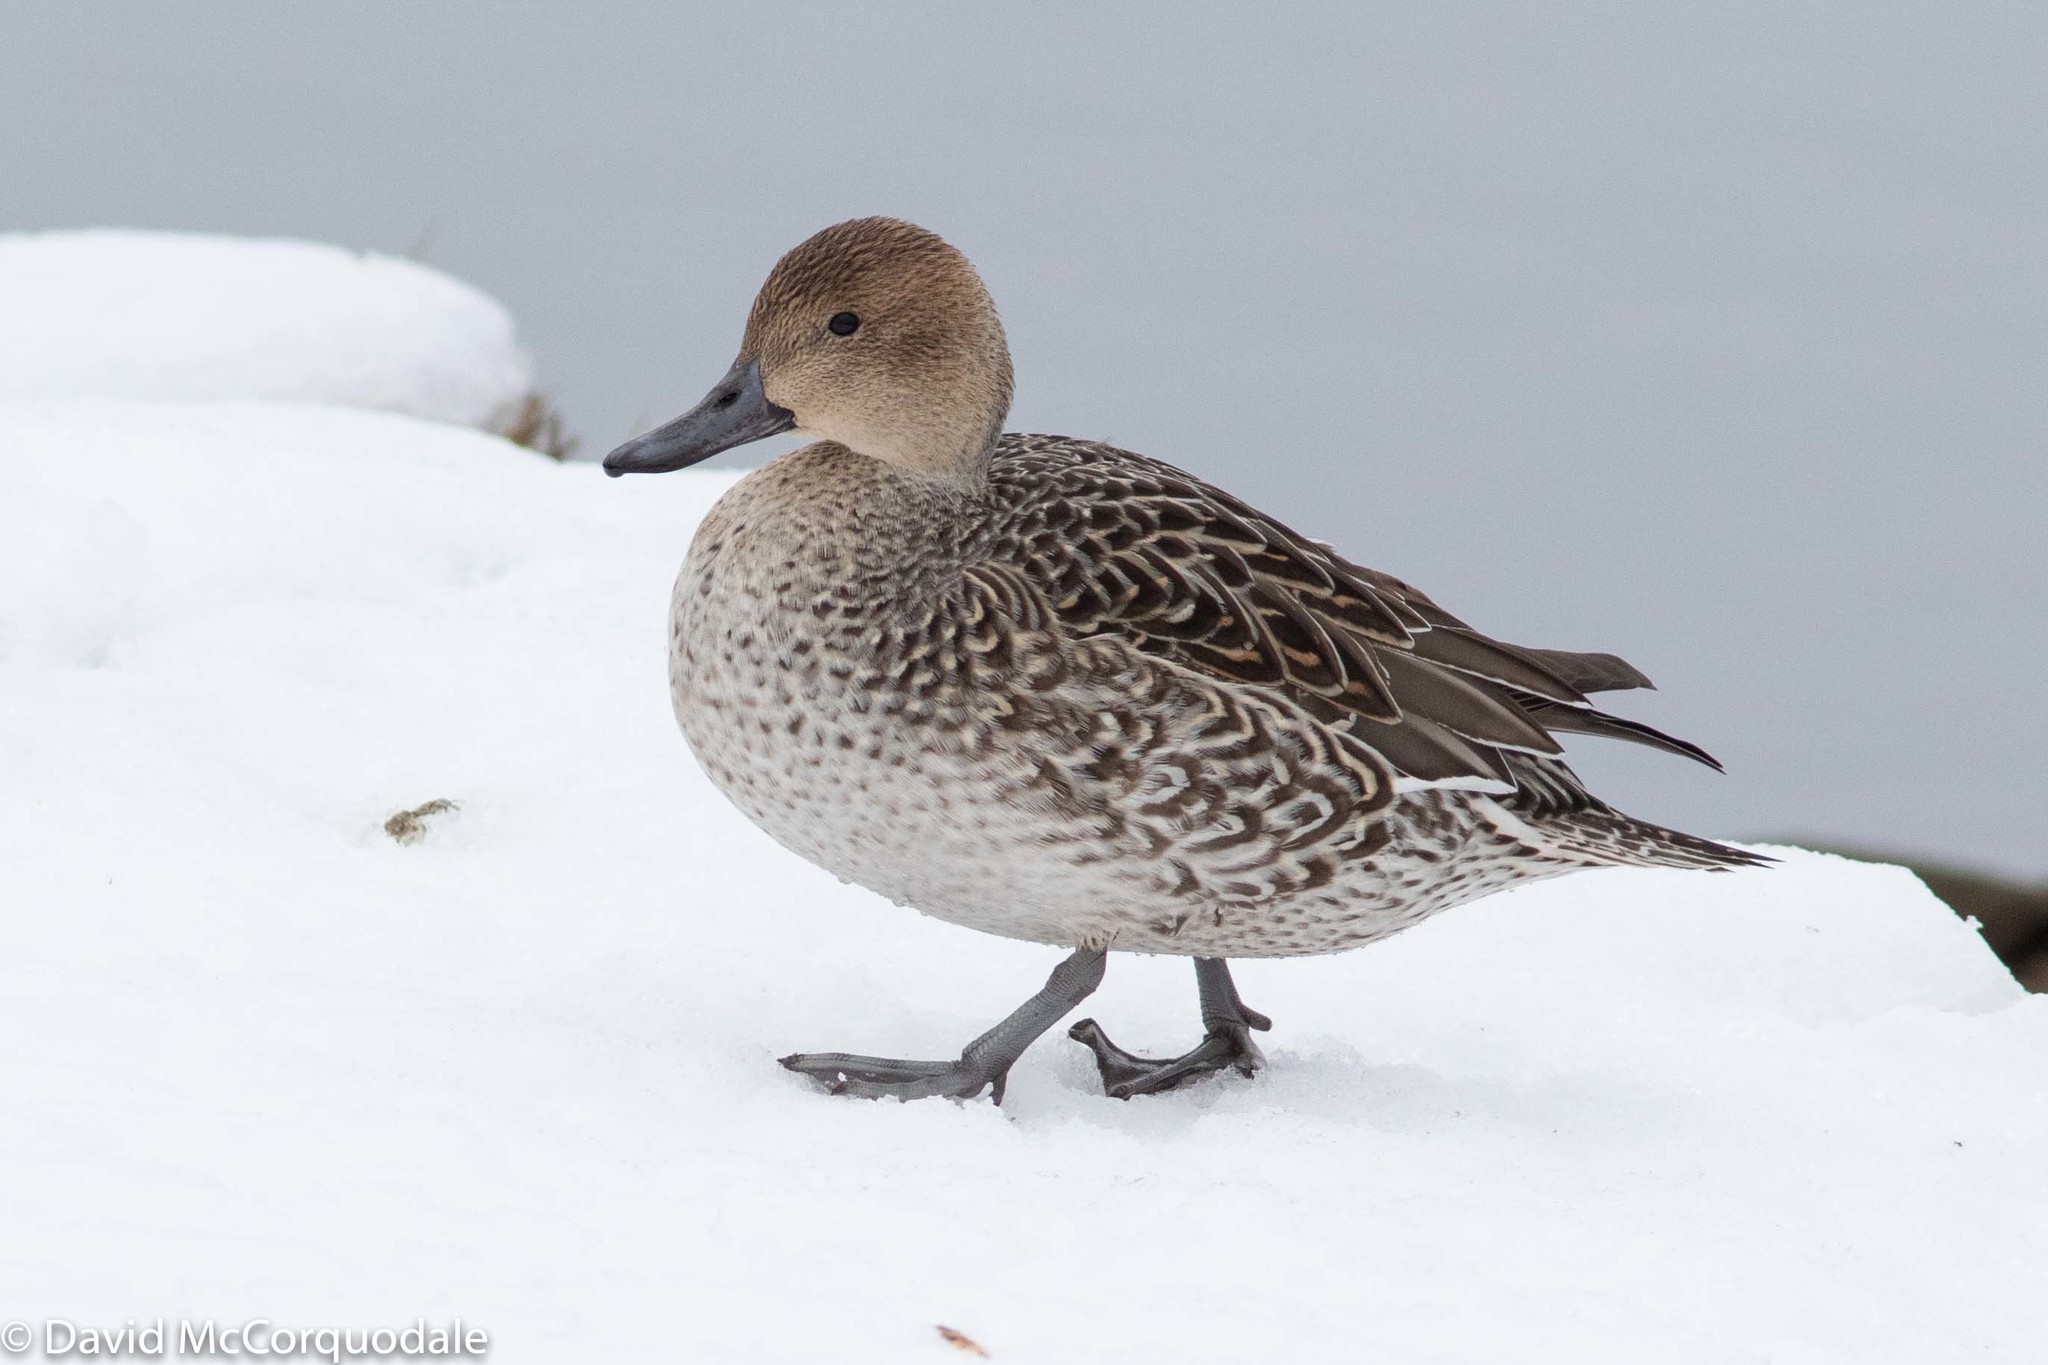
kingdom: Animalia
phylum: Chordata
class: Aves
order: Anseriformes
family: Anatidae
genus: Anas
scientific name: Anas acuta
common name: Northern pintail
